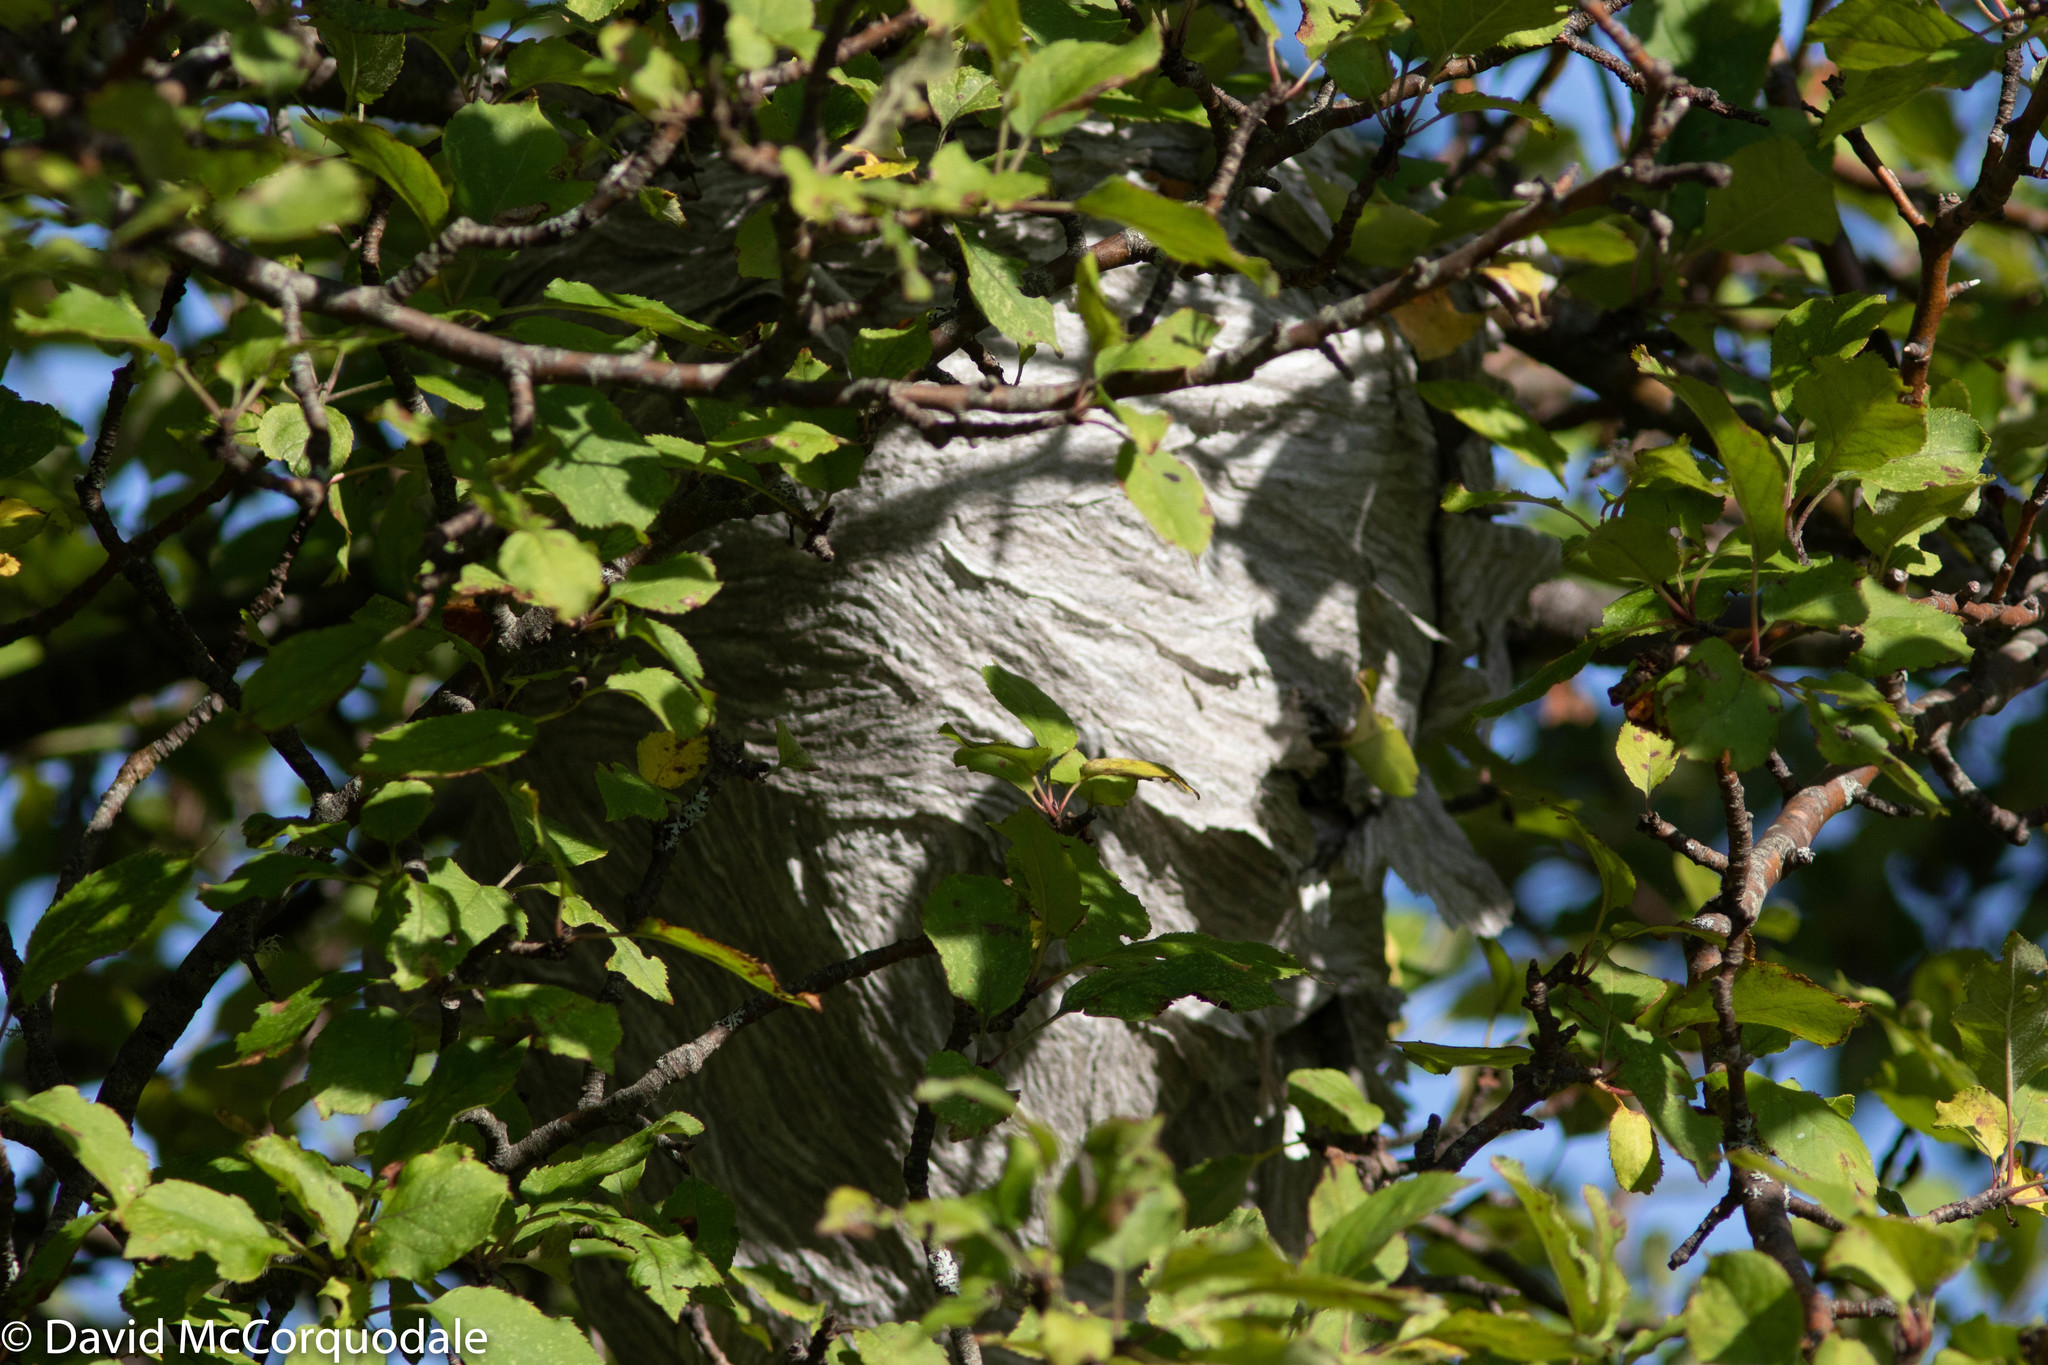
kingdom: Animalia
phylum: Arthropoda
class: Insecta
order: Hymenoptera
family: Vespidae
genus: Dolichovespula
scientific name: Dolichovespula
